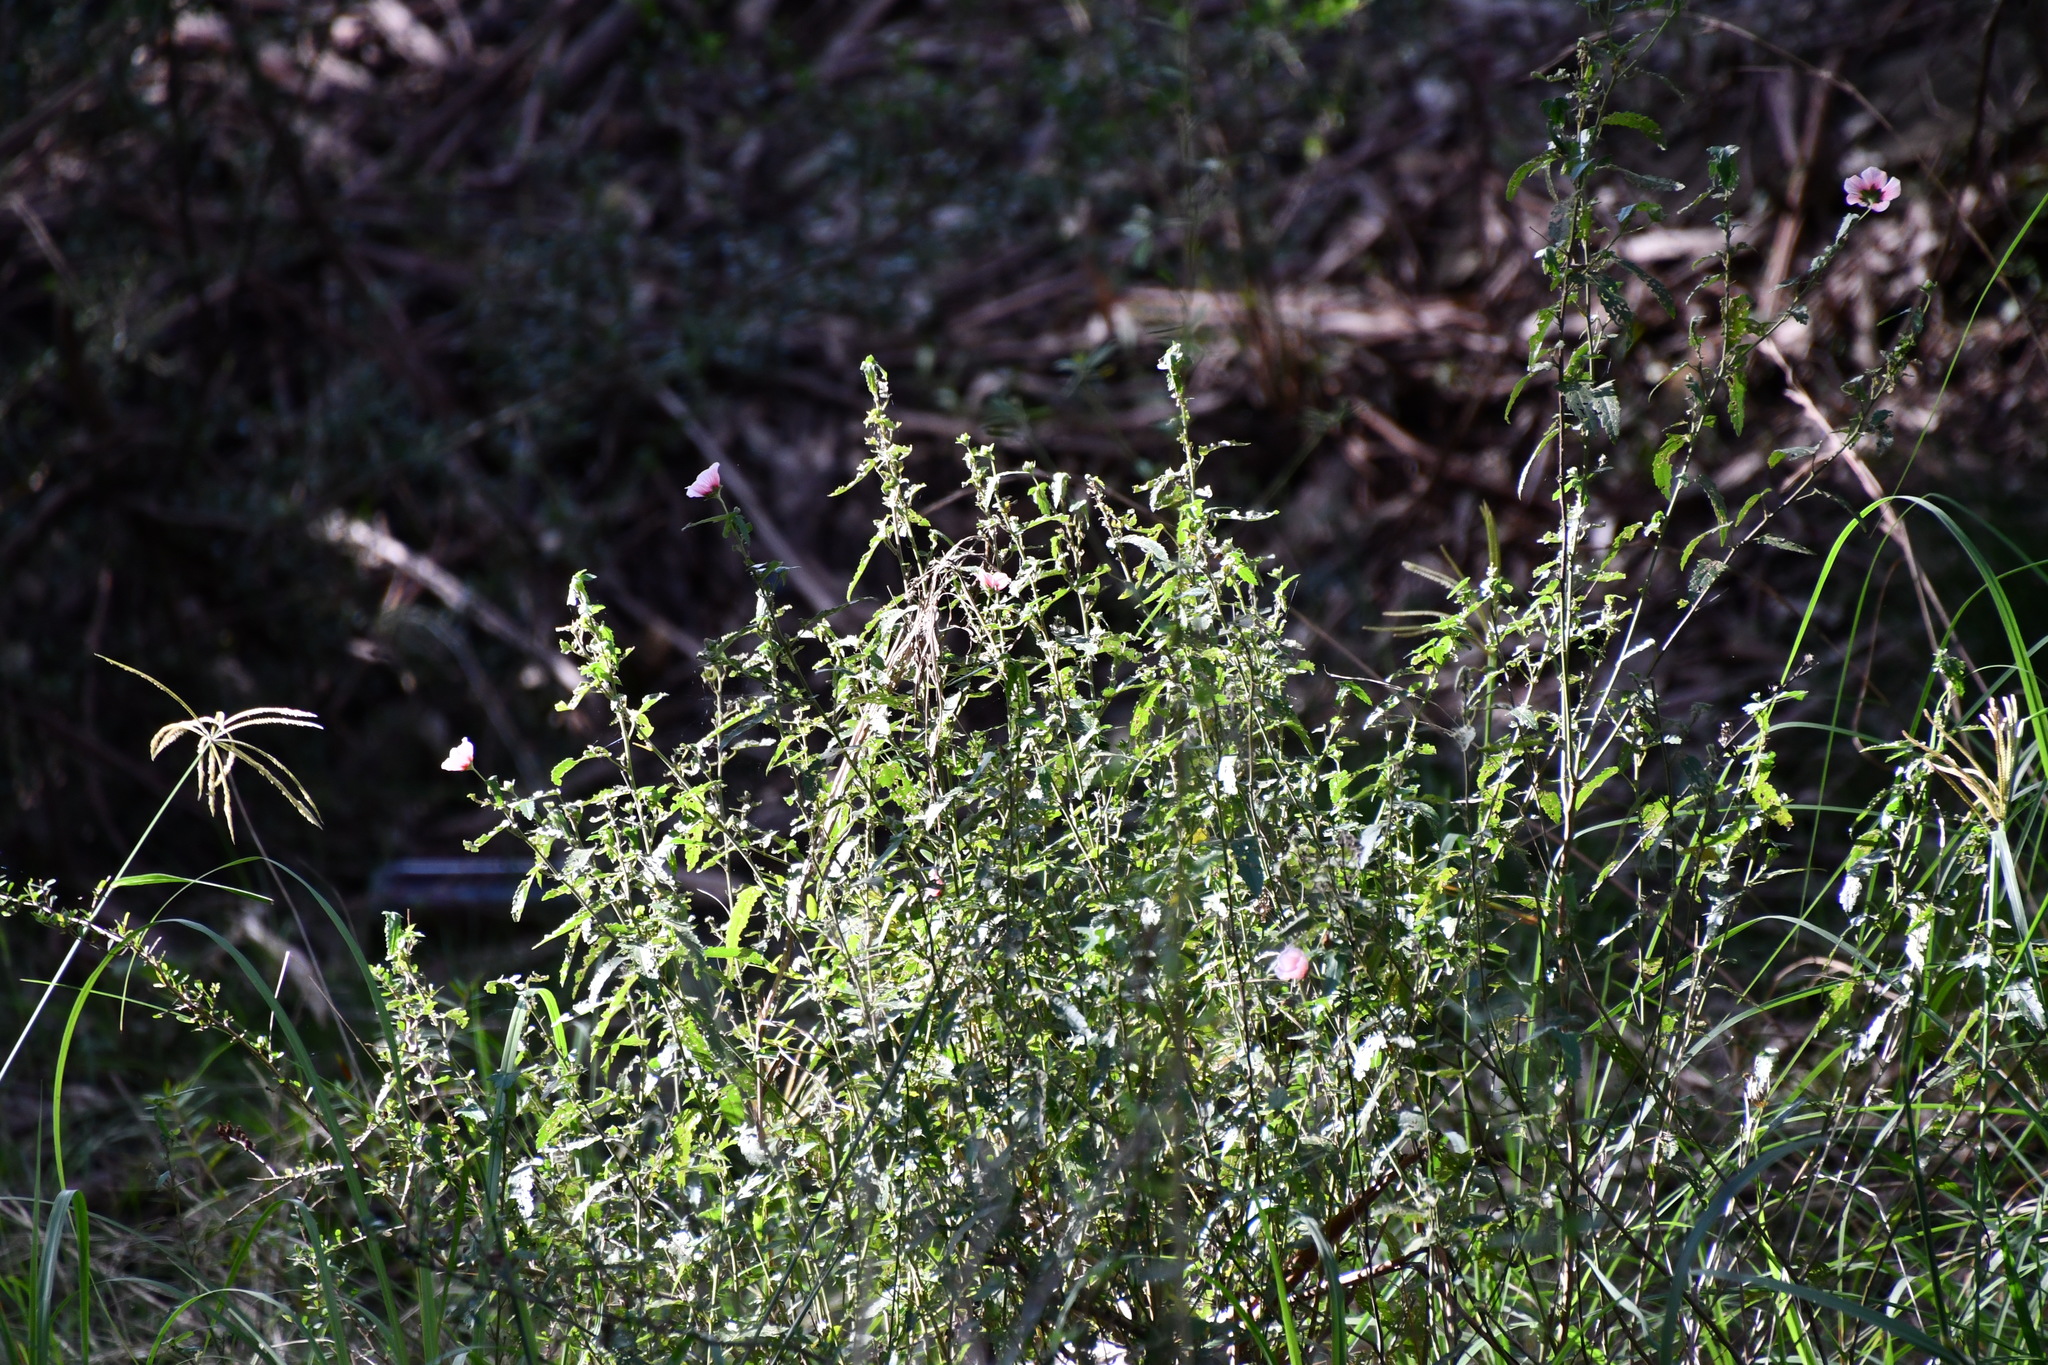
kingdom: Plantae
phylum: Tracheophyta
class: Magnoliopsida
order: Malvales
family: Malvaceae
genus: Pavonia
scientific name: Pavonia hastata
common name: Spearleaf swampmallow
